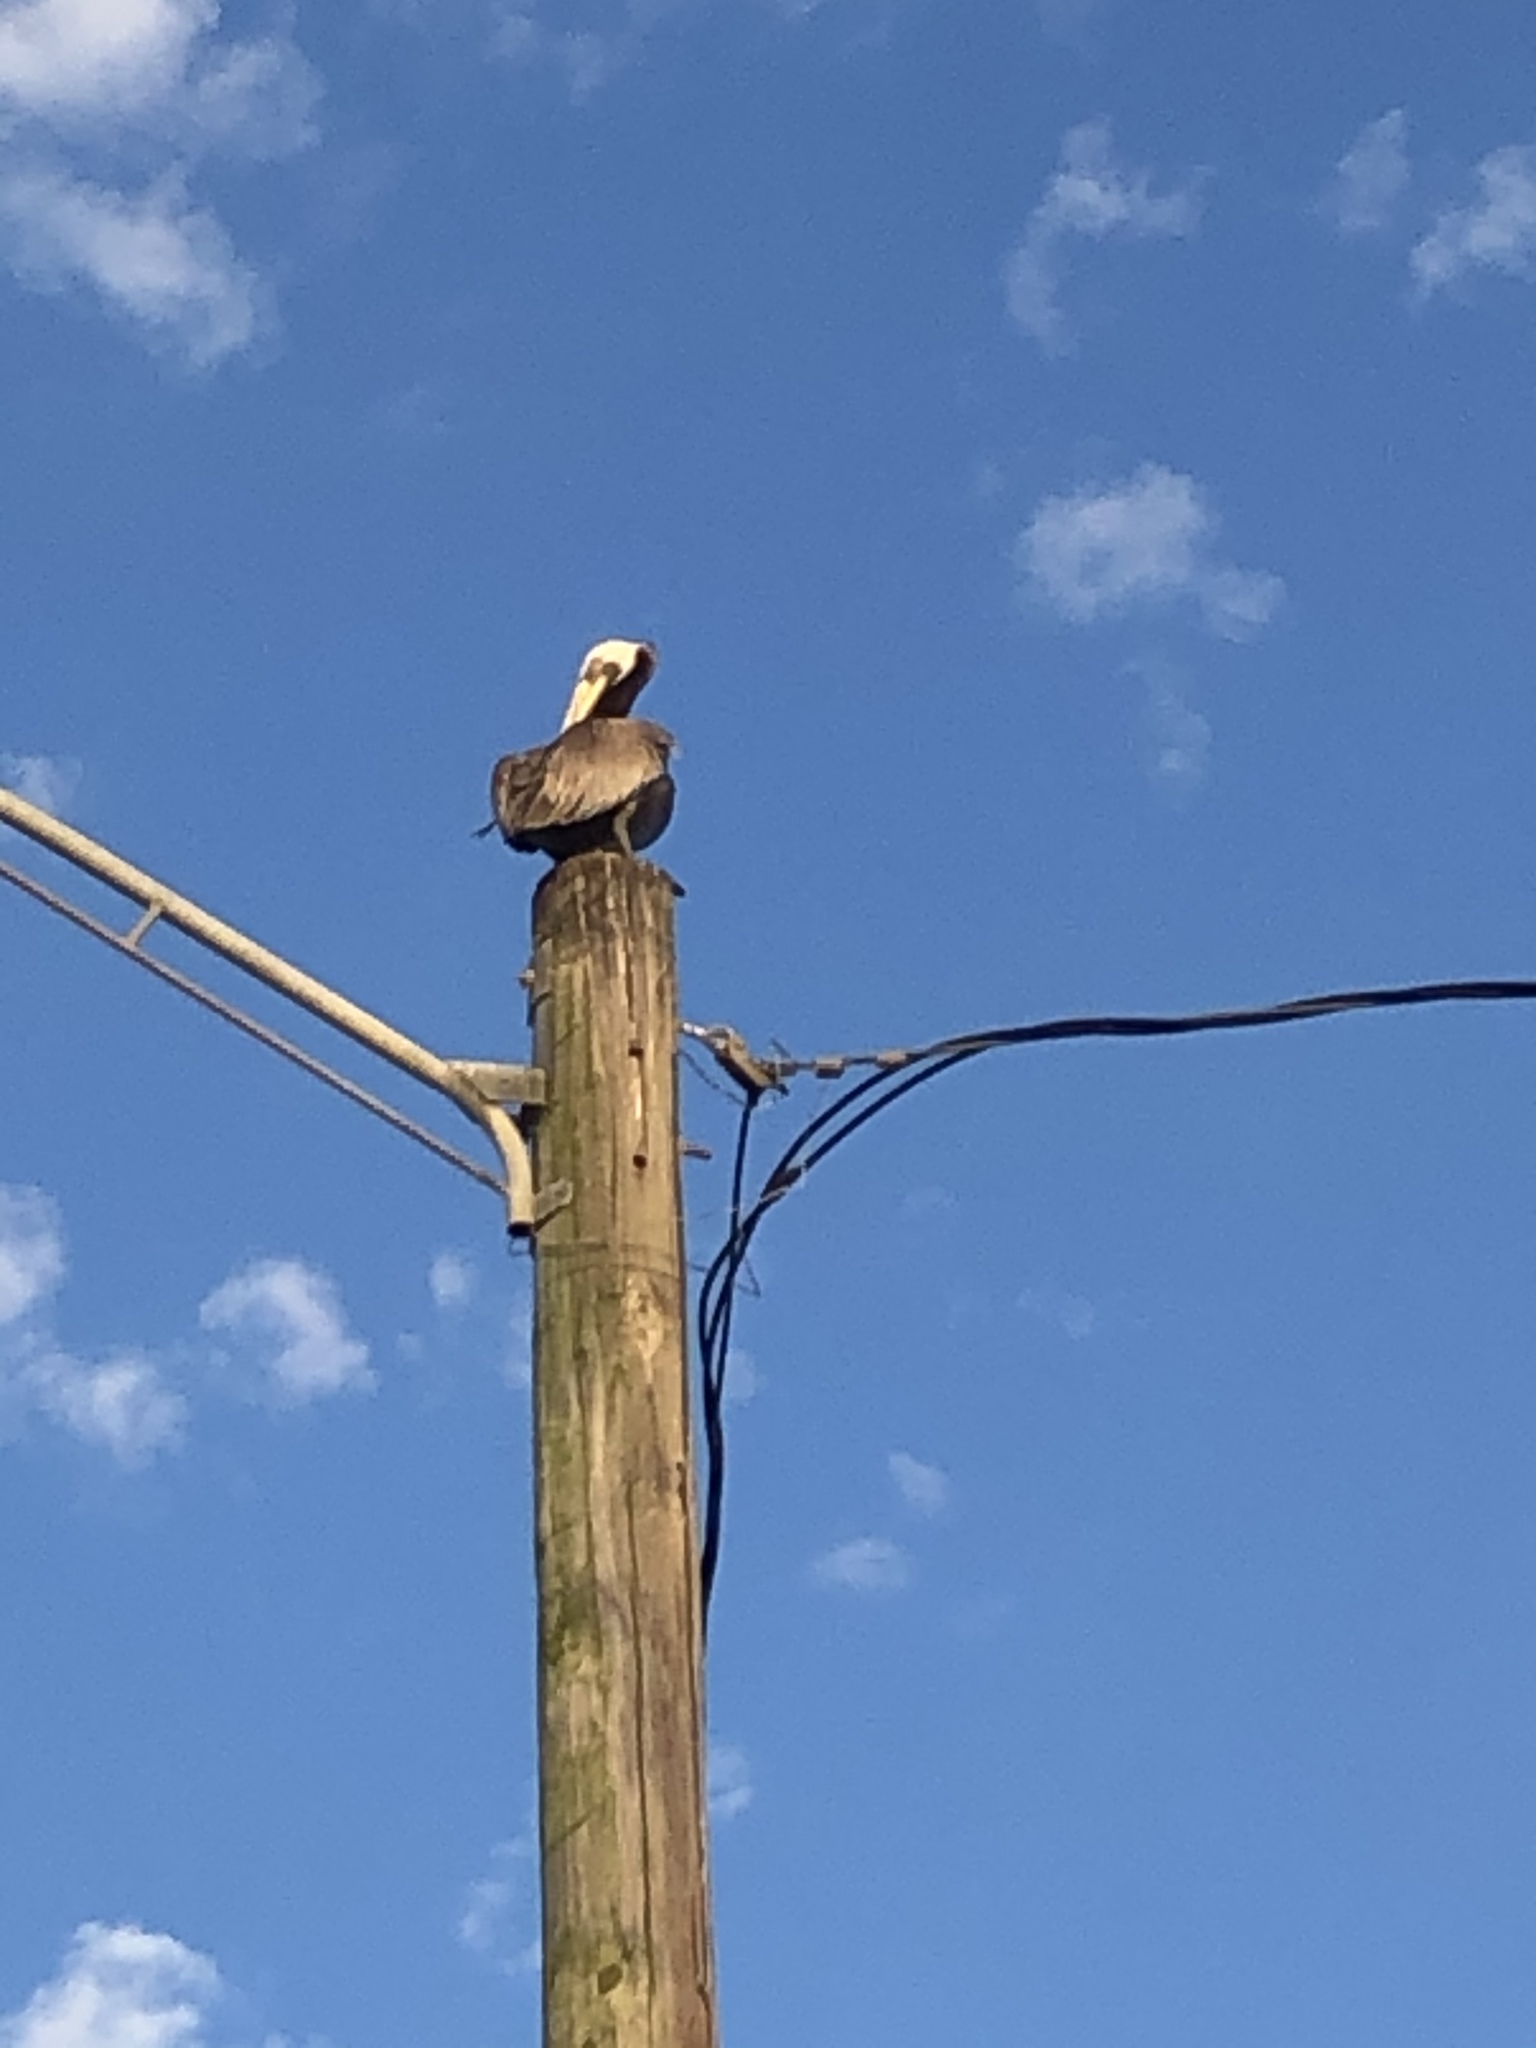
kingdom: Animalia
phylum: Chordata
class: Aves
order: Pelecaniformes
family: Pelecanidae
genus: Pelecanus
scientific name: Pelecanus occidentalis
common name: Brown pelican
